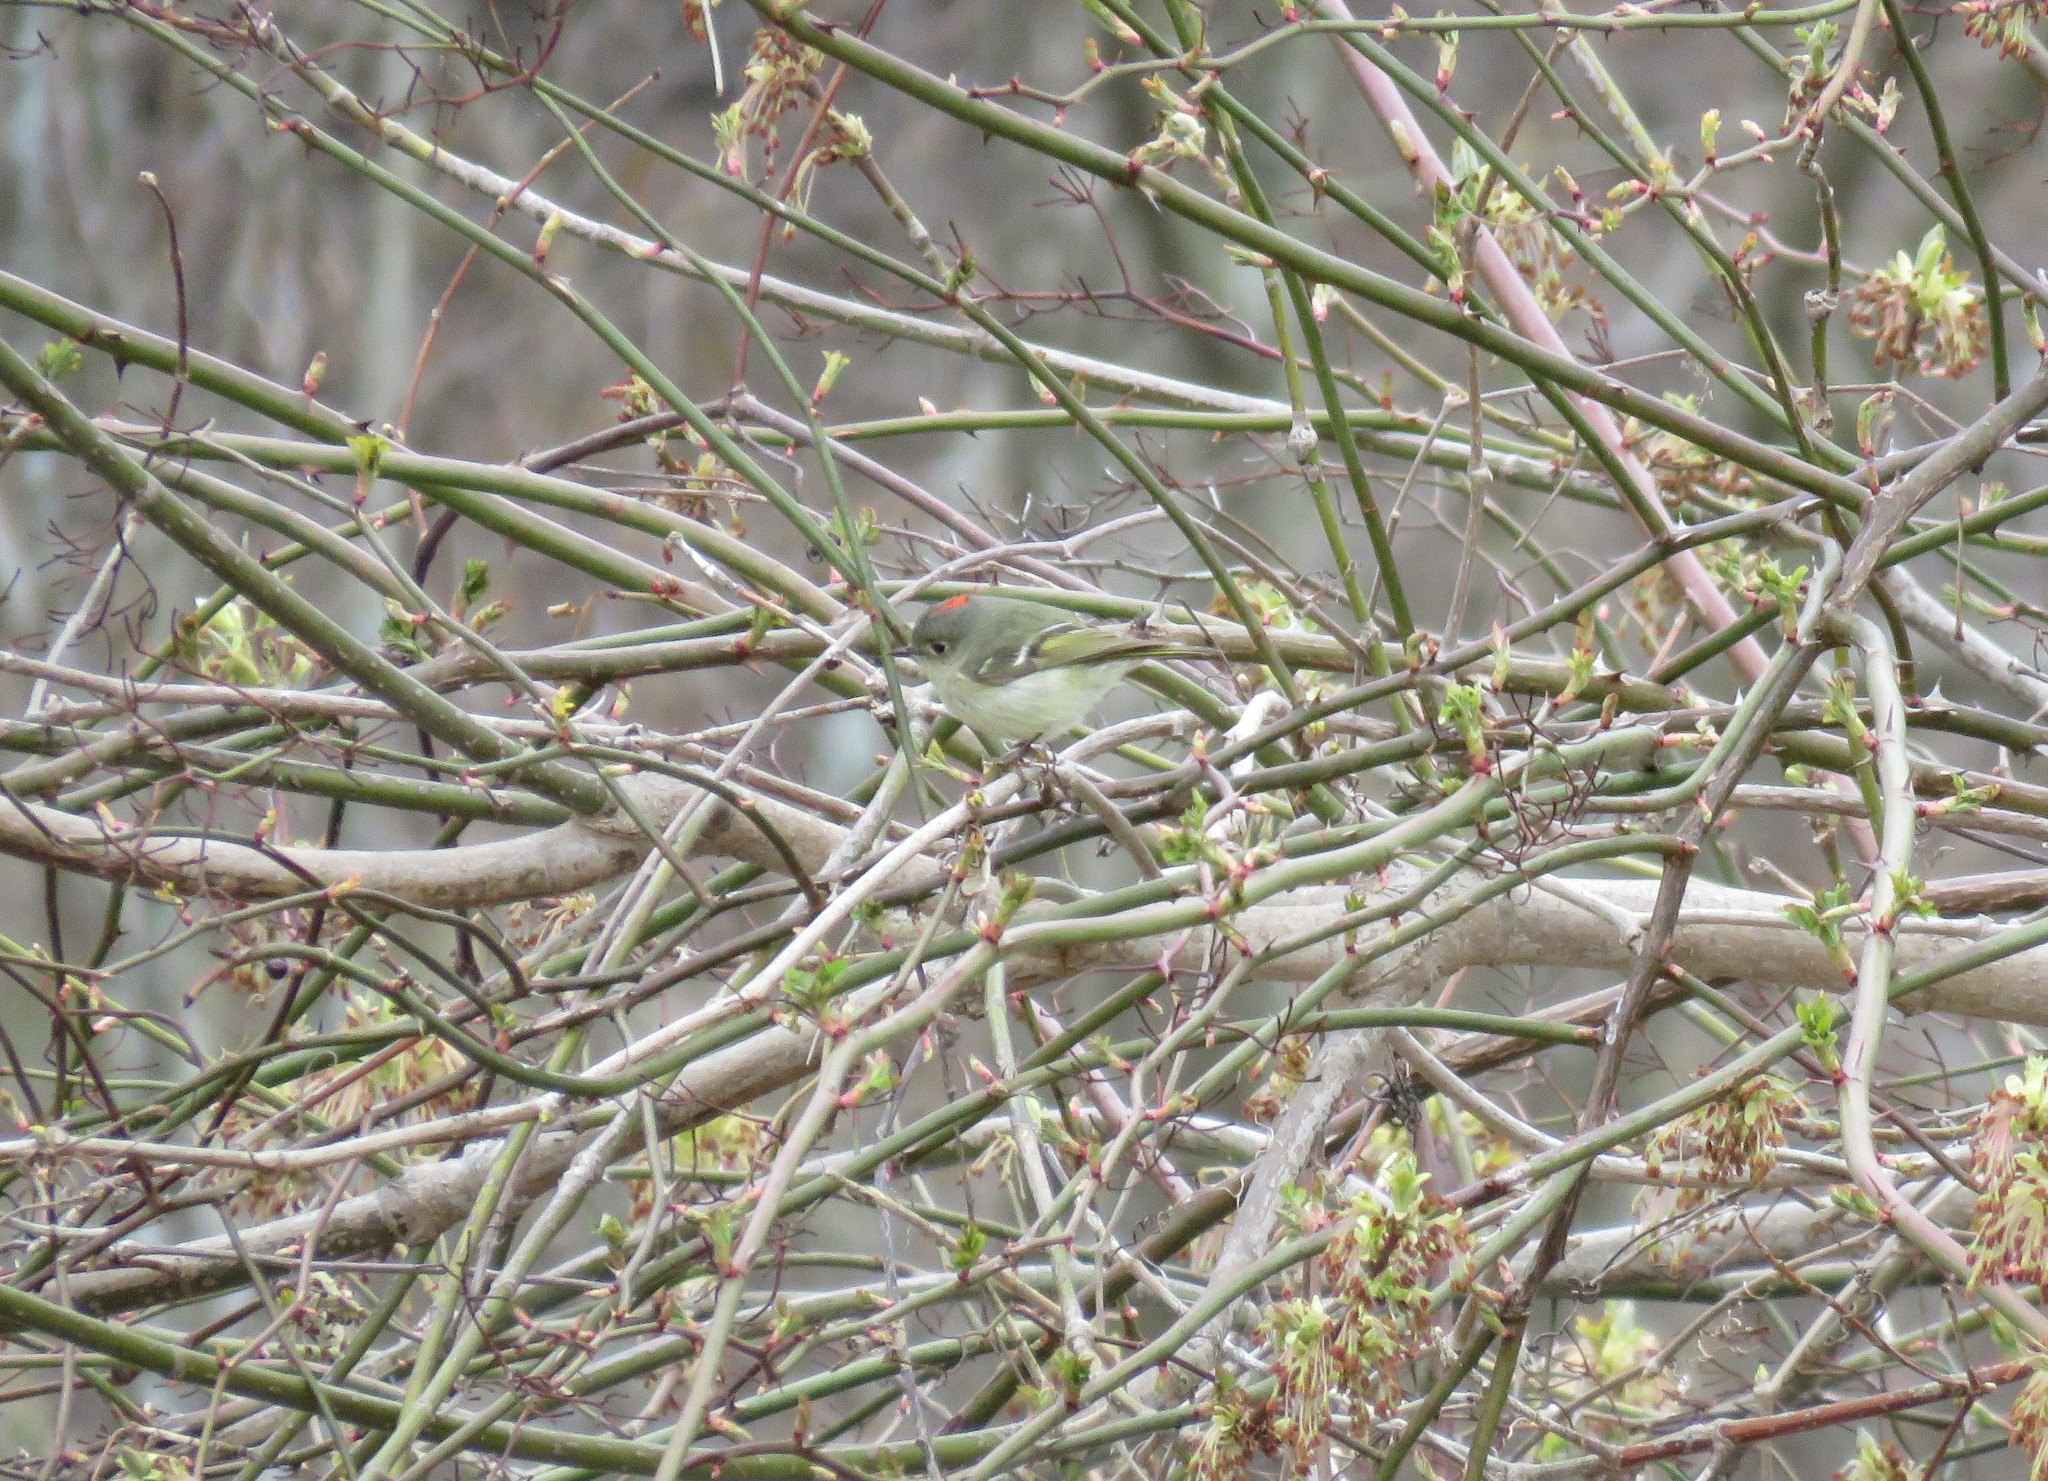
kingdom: Animalia
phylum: Chordata
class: Aves
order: Passeriformes
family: Regulidae
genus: Regulus
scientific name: Regulus calendula
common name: Ruby-crowned kinglet
